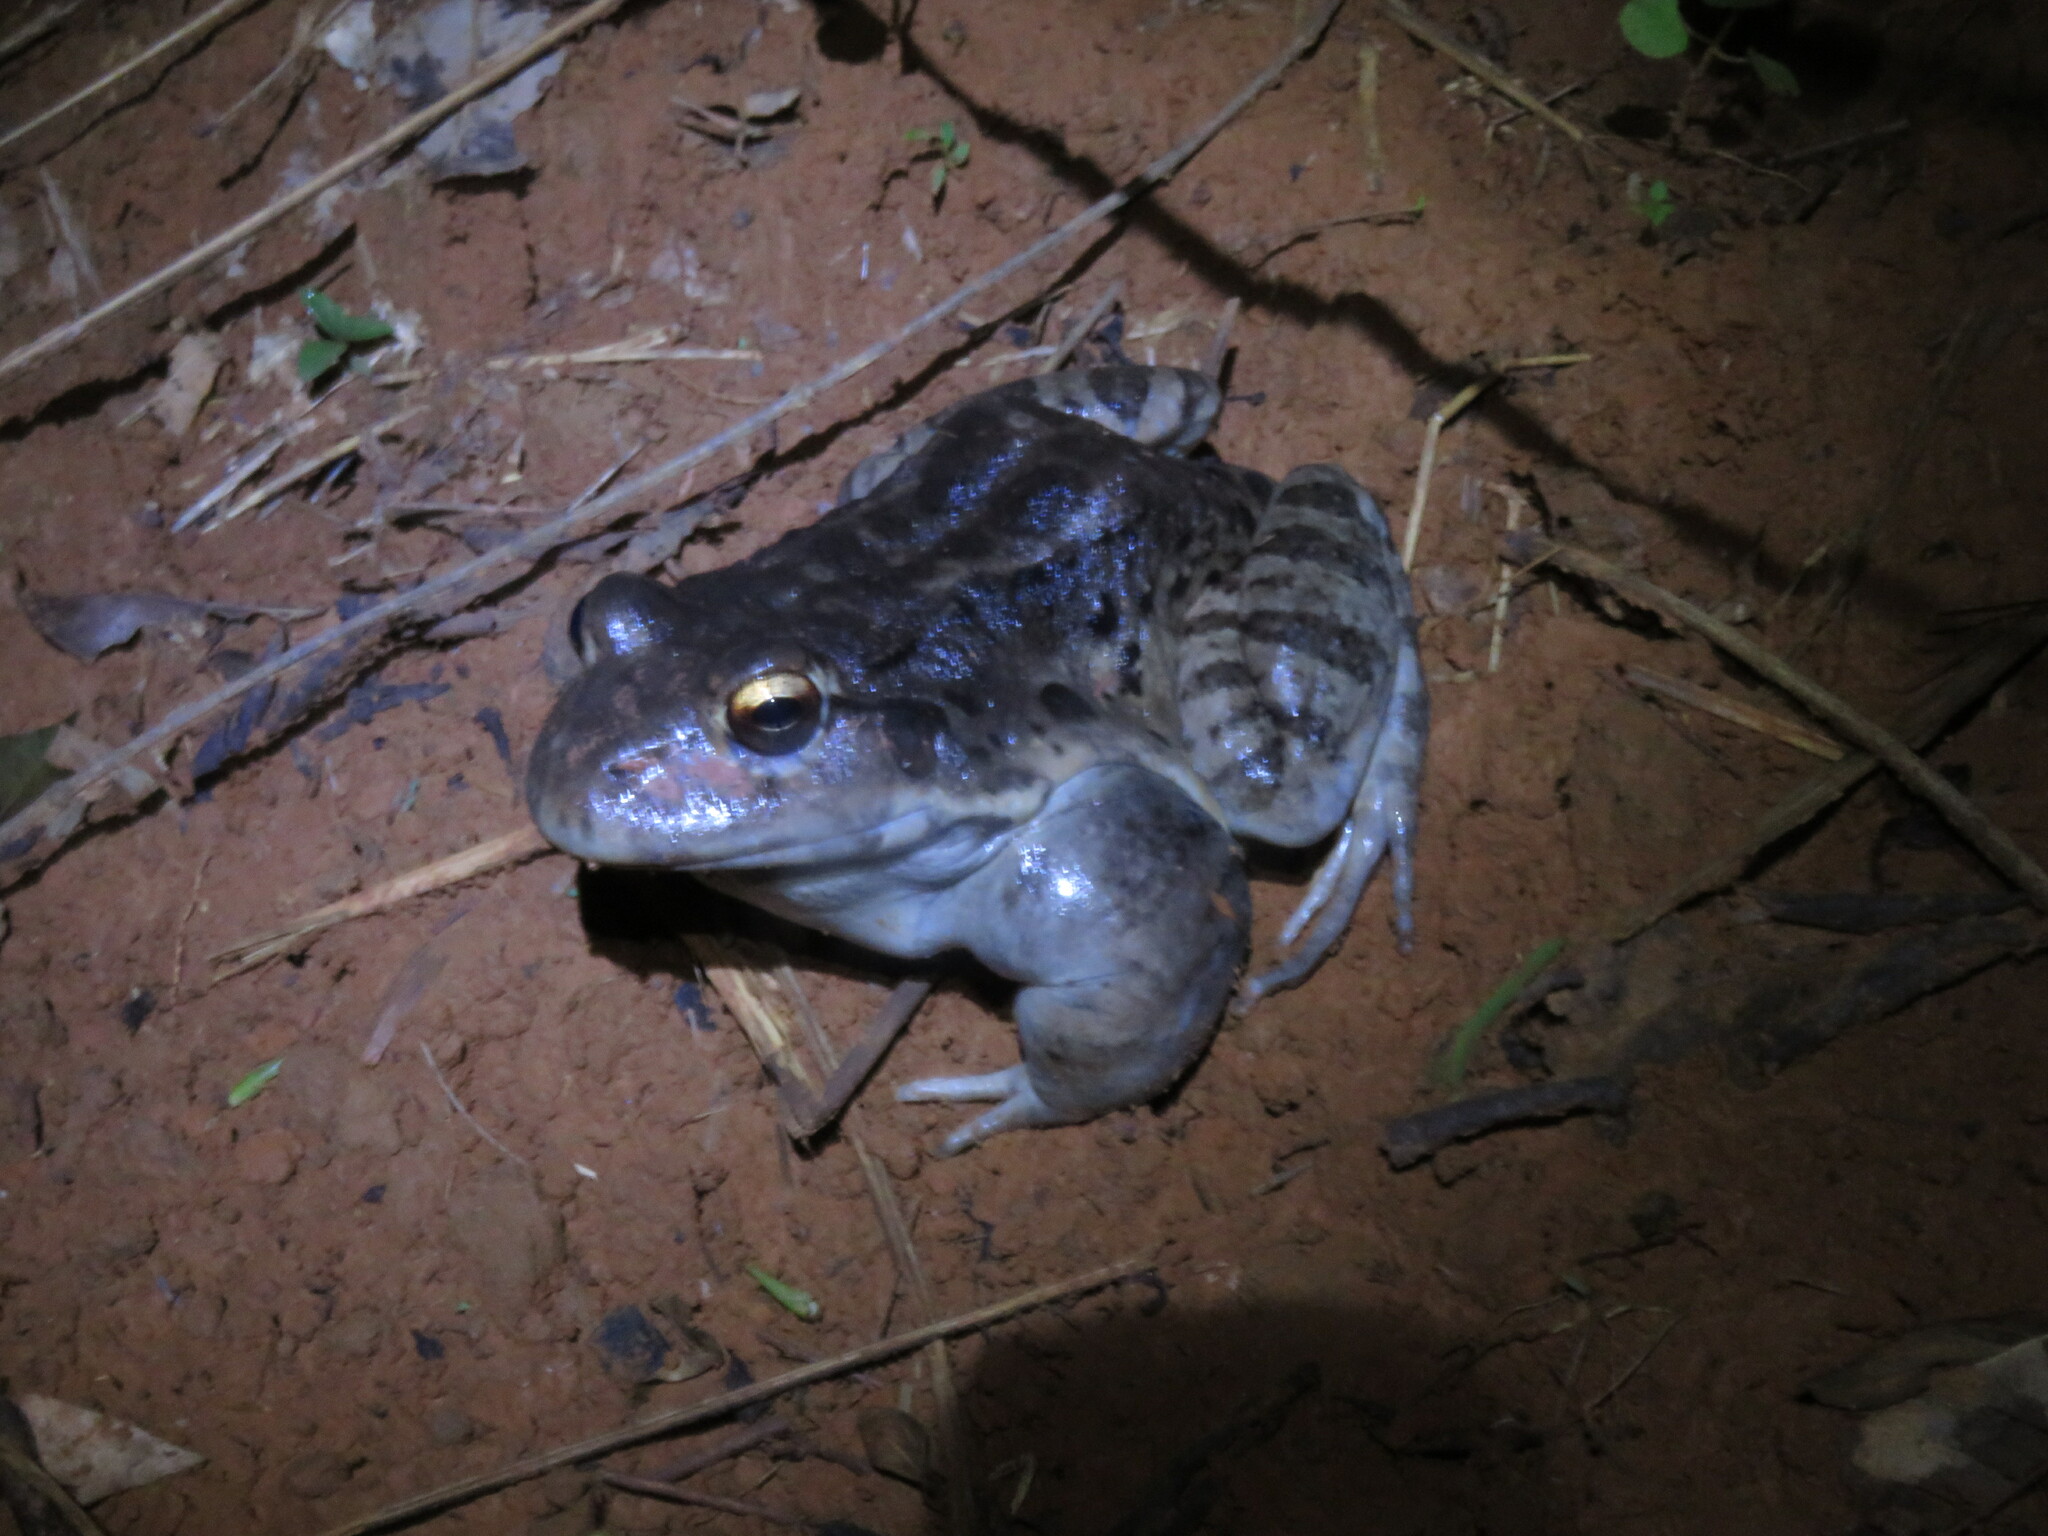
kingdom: Animalia
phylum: Chordata
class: Amphibia
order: Anura
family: Leptodactylidae
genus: Leptodactylus
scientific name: Leptodactylus vastus
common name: Northeastern pepper frog
